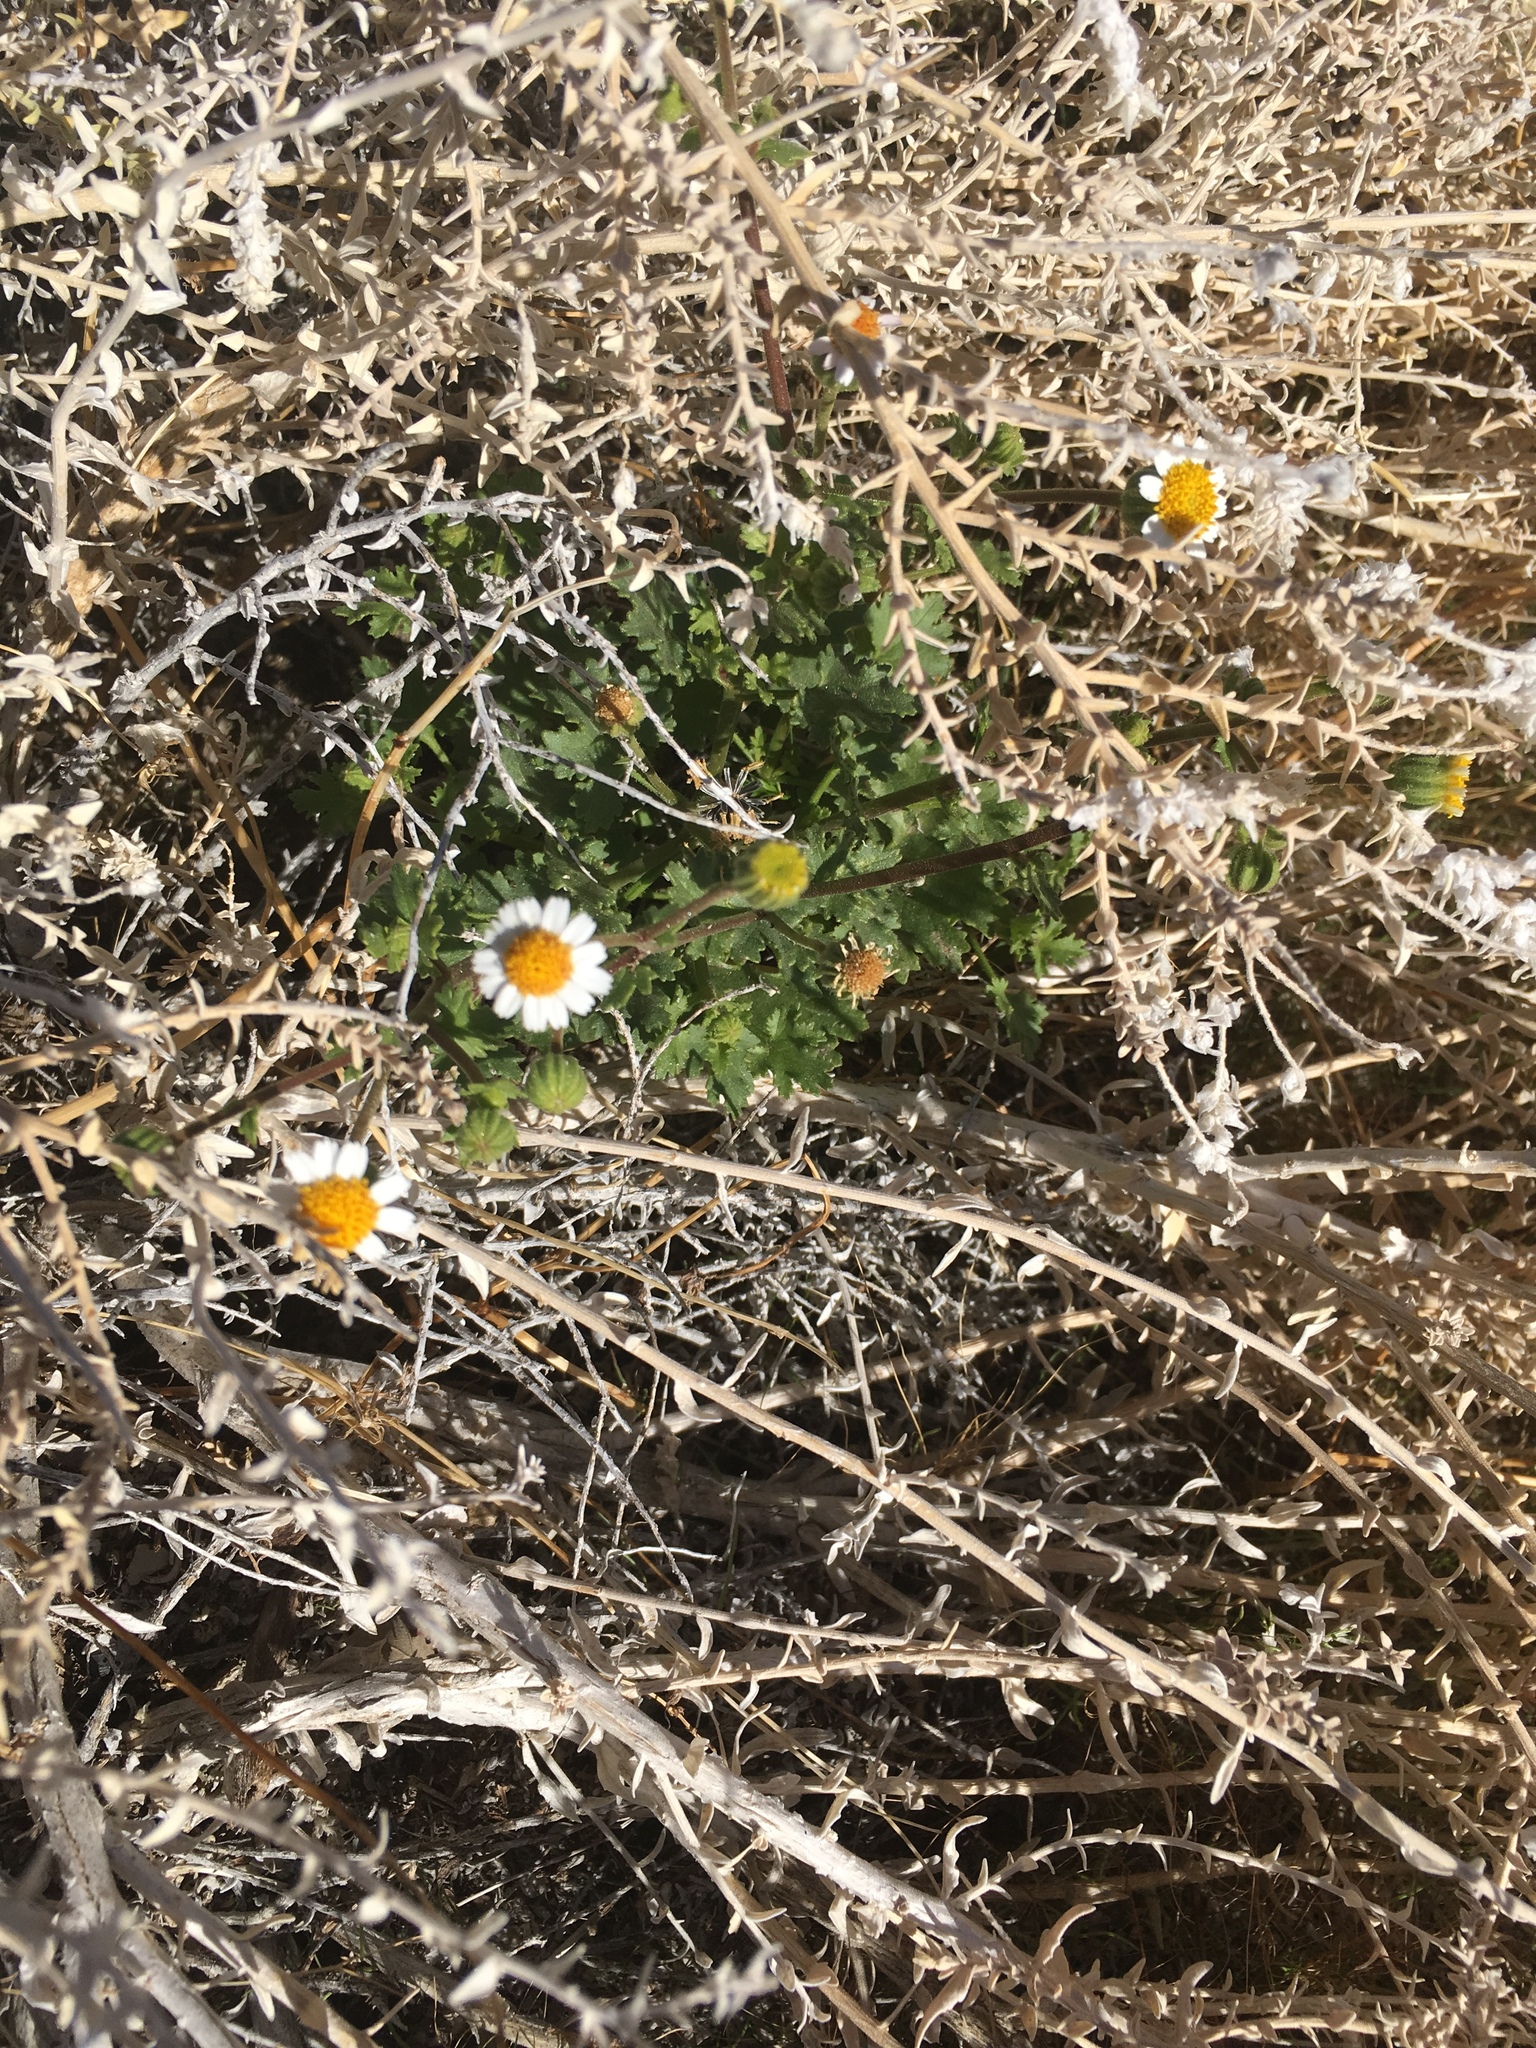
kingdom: Plantae
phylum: Tracheophyta
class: Magnoliopsida
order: Asterales
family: Asteraceae
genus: Laphamia
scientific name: Laphamia emoryi
